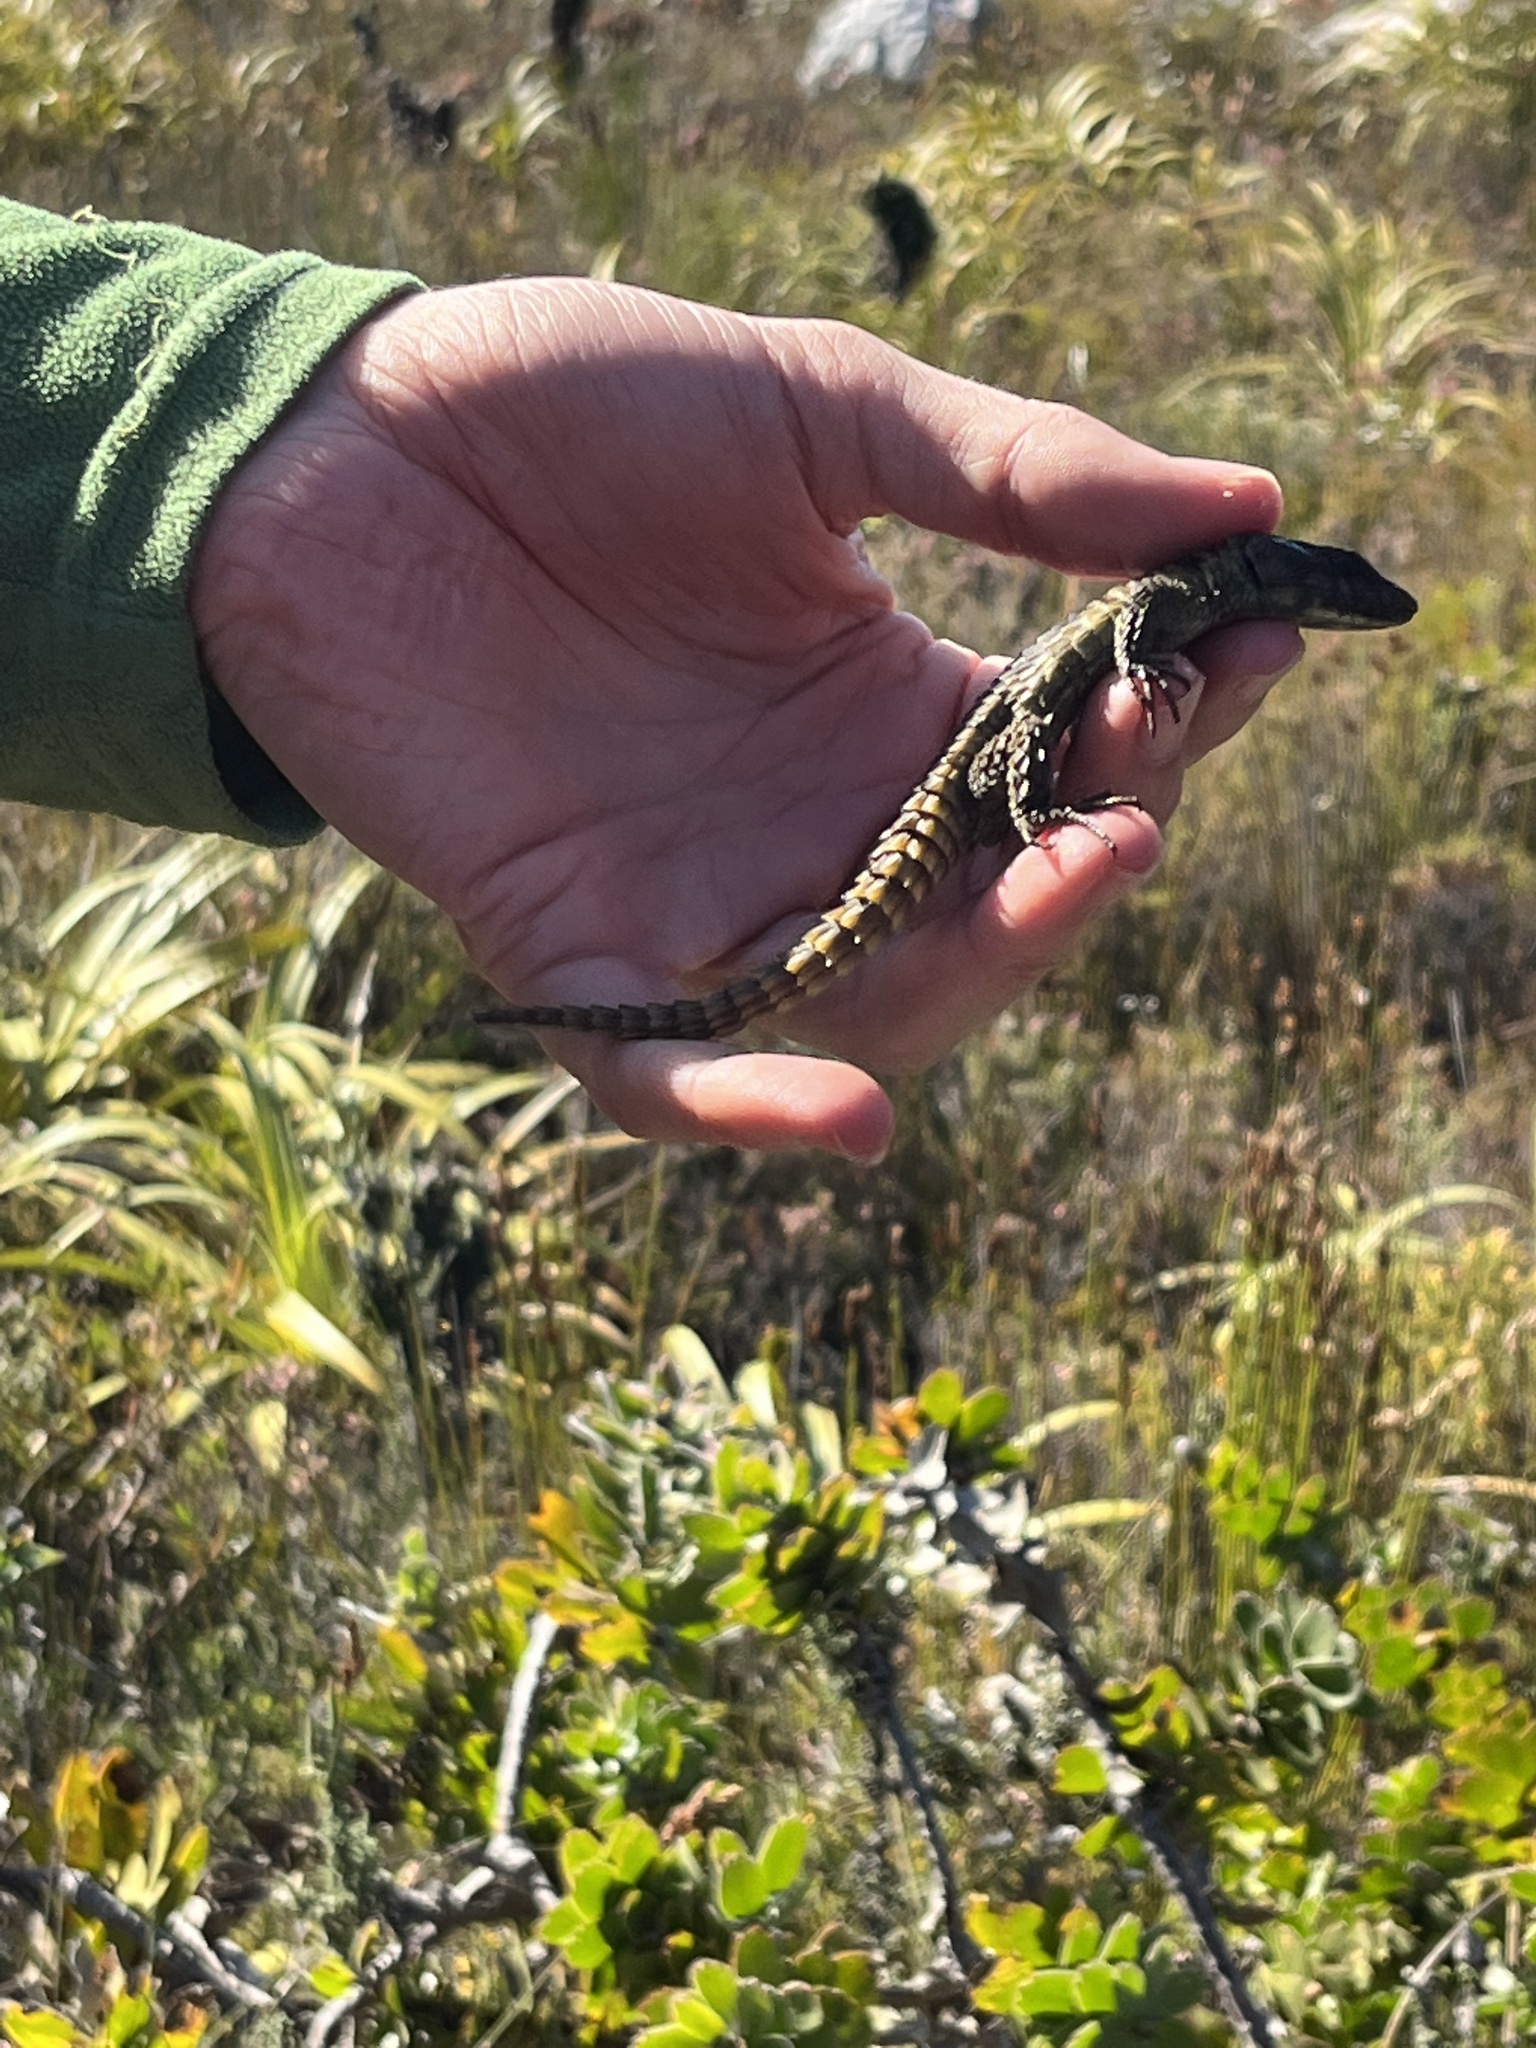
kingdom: Animalia
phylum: Chordata
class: Squamata
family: Cordylidae
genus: Cordylus
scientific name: Cordylus cordylus
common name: Cape girdled lizard
